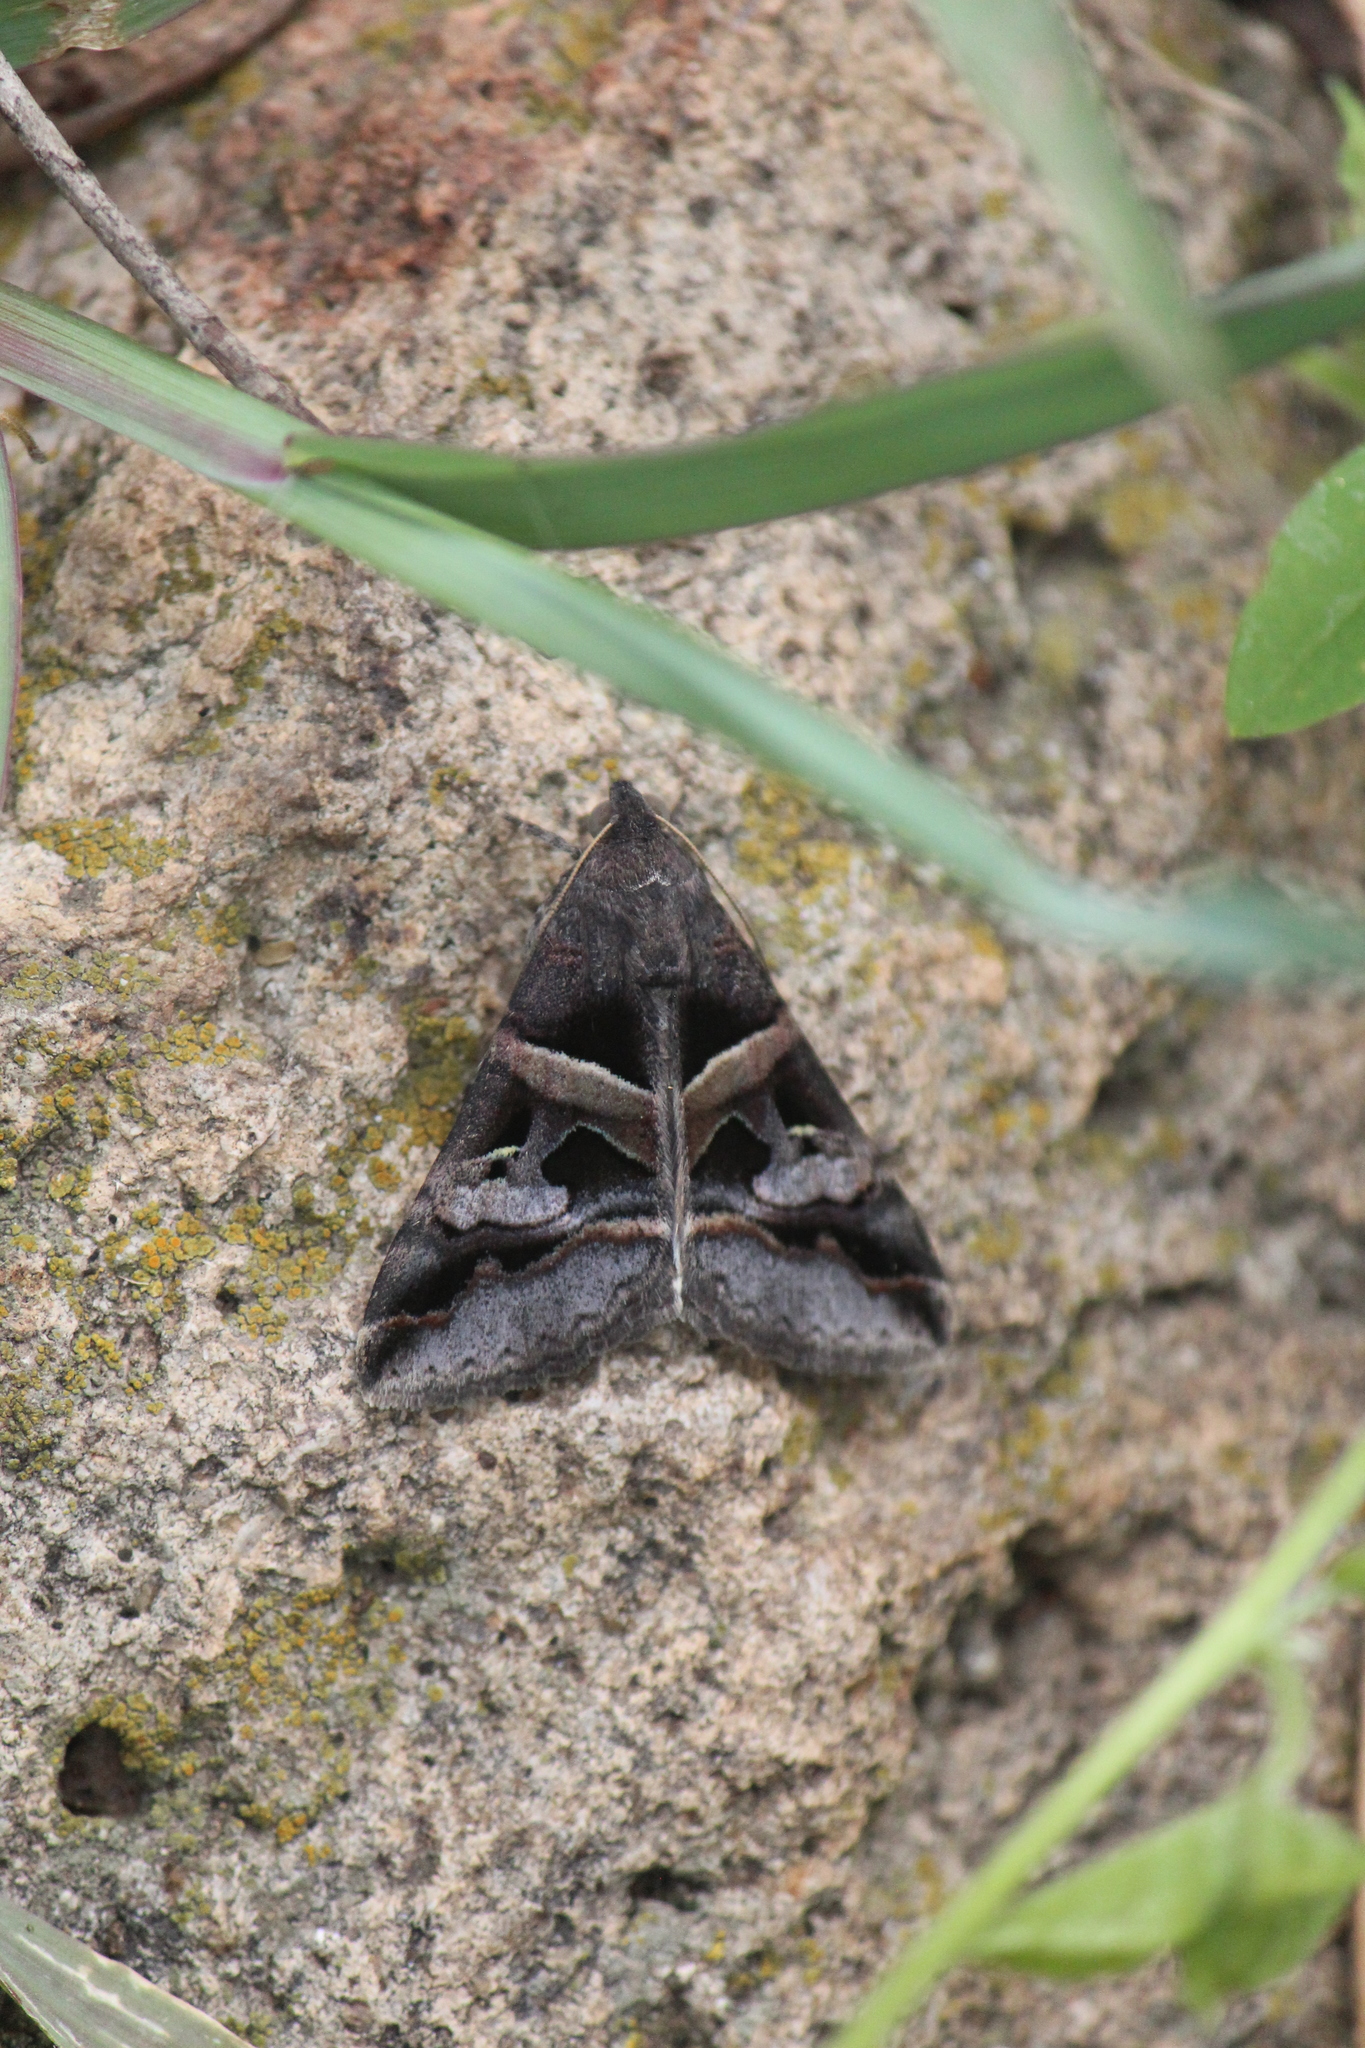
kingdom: Animalia
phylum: Arthropoda
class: Insecta
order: Lepidoptera
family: Erebidae
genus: Melipotis
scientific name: Melipotis perpendicularis
